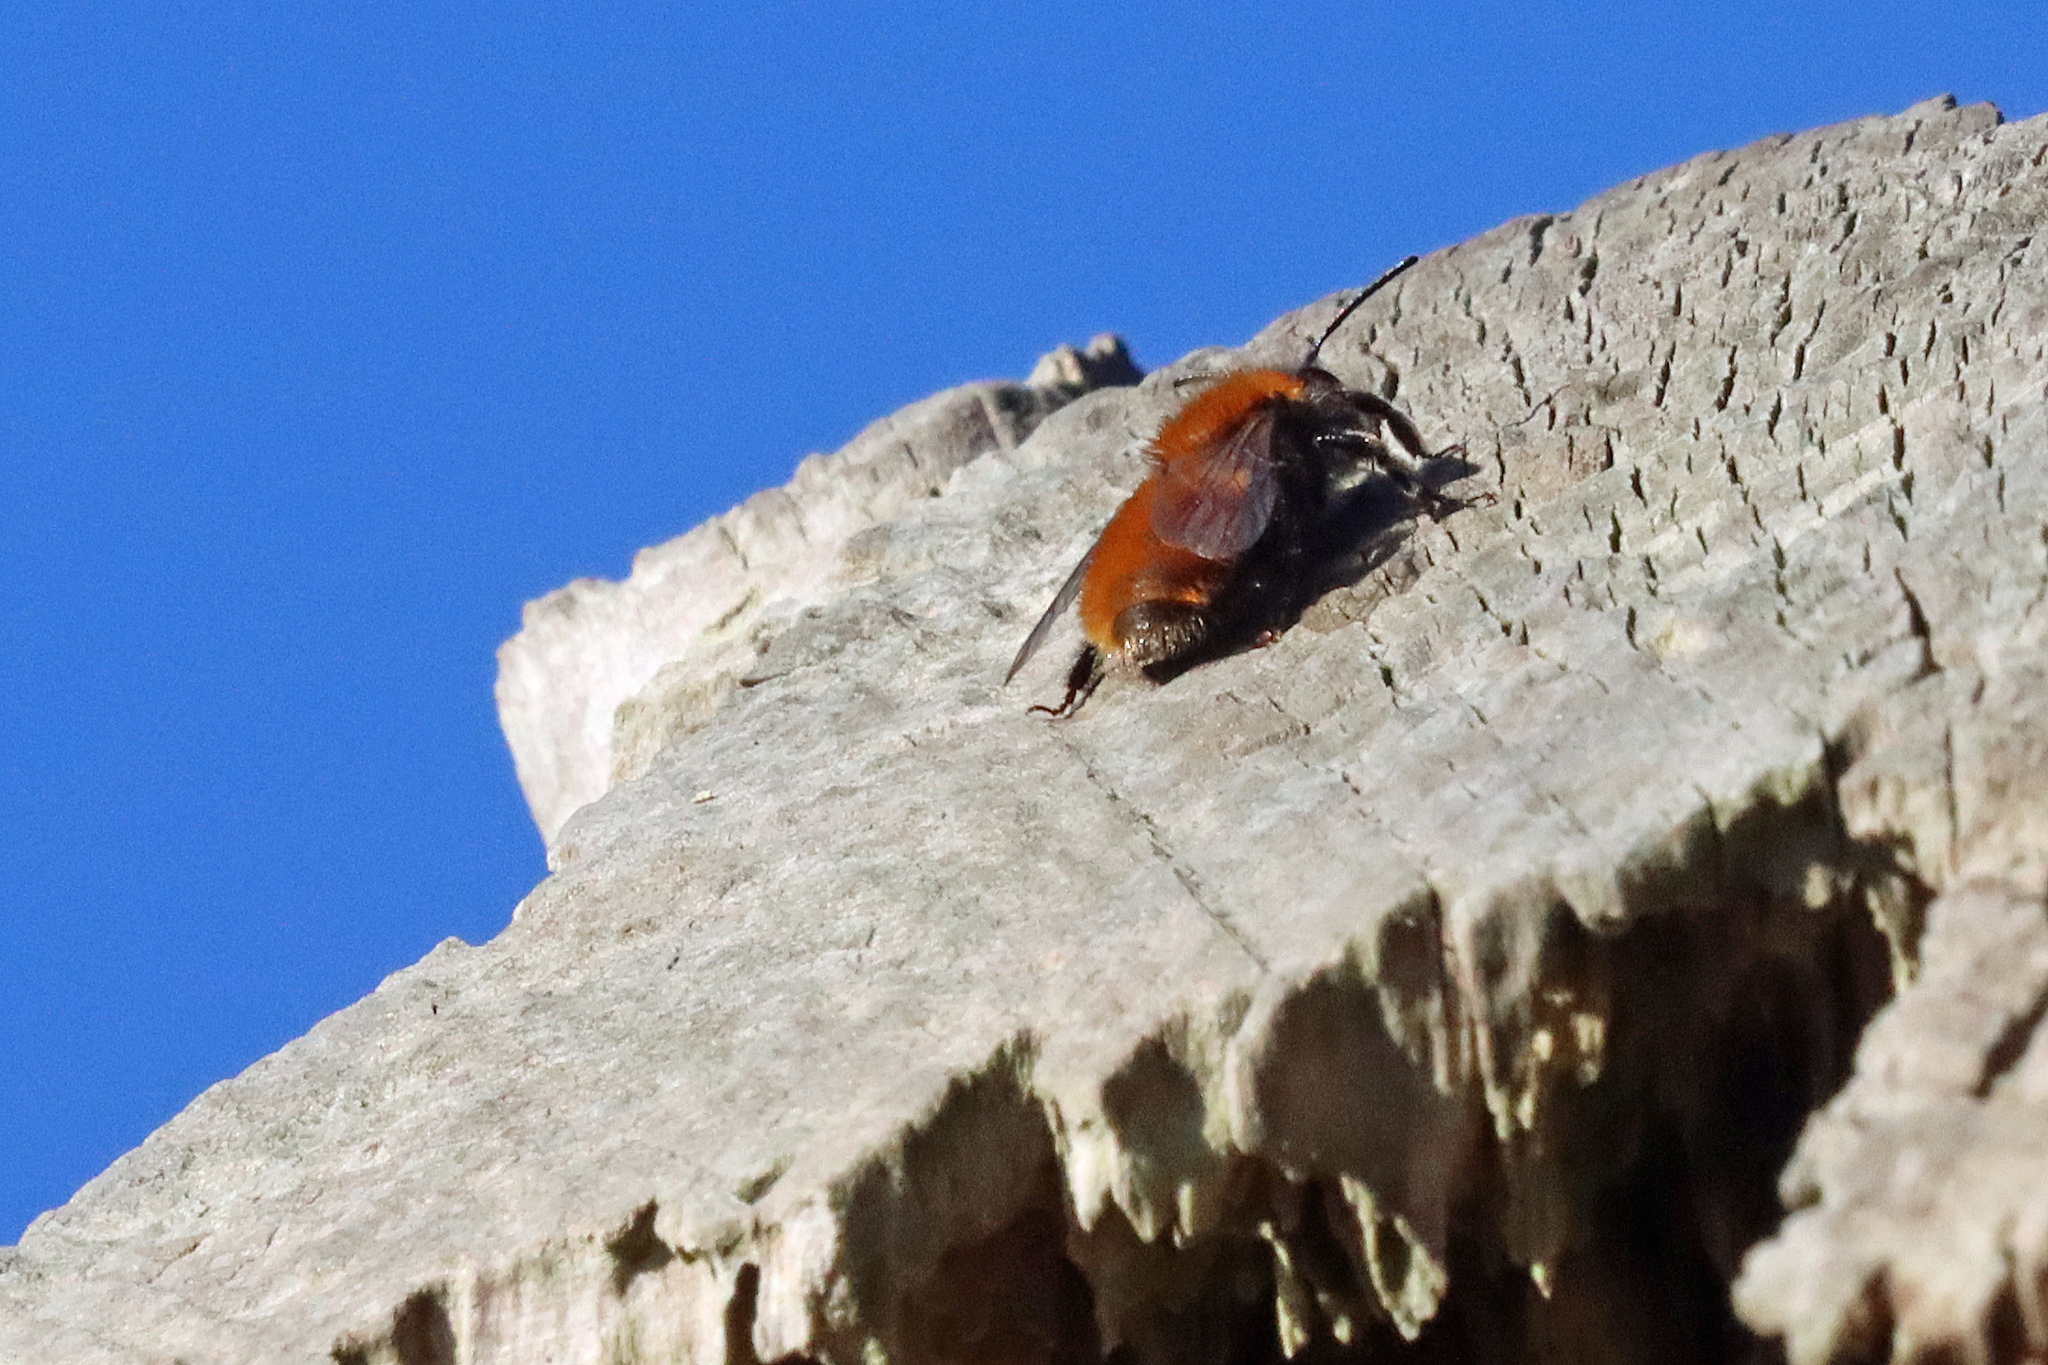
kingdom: Animalia
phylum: Arthropoda
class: Insecta
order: Hymenoptera
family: Andrenidae
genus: Andrena
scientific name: Andrena fulva
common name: Tawny mining bee
